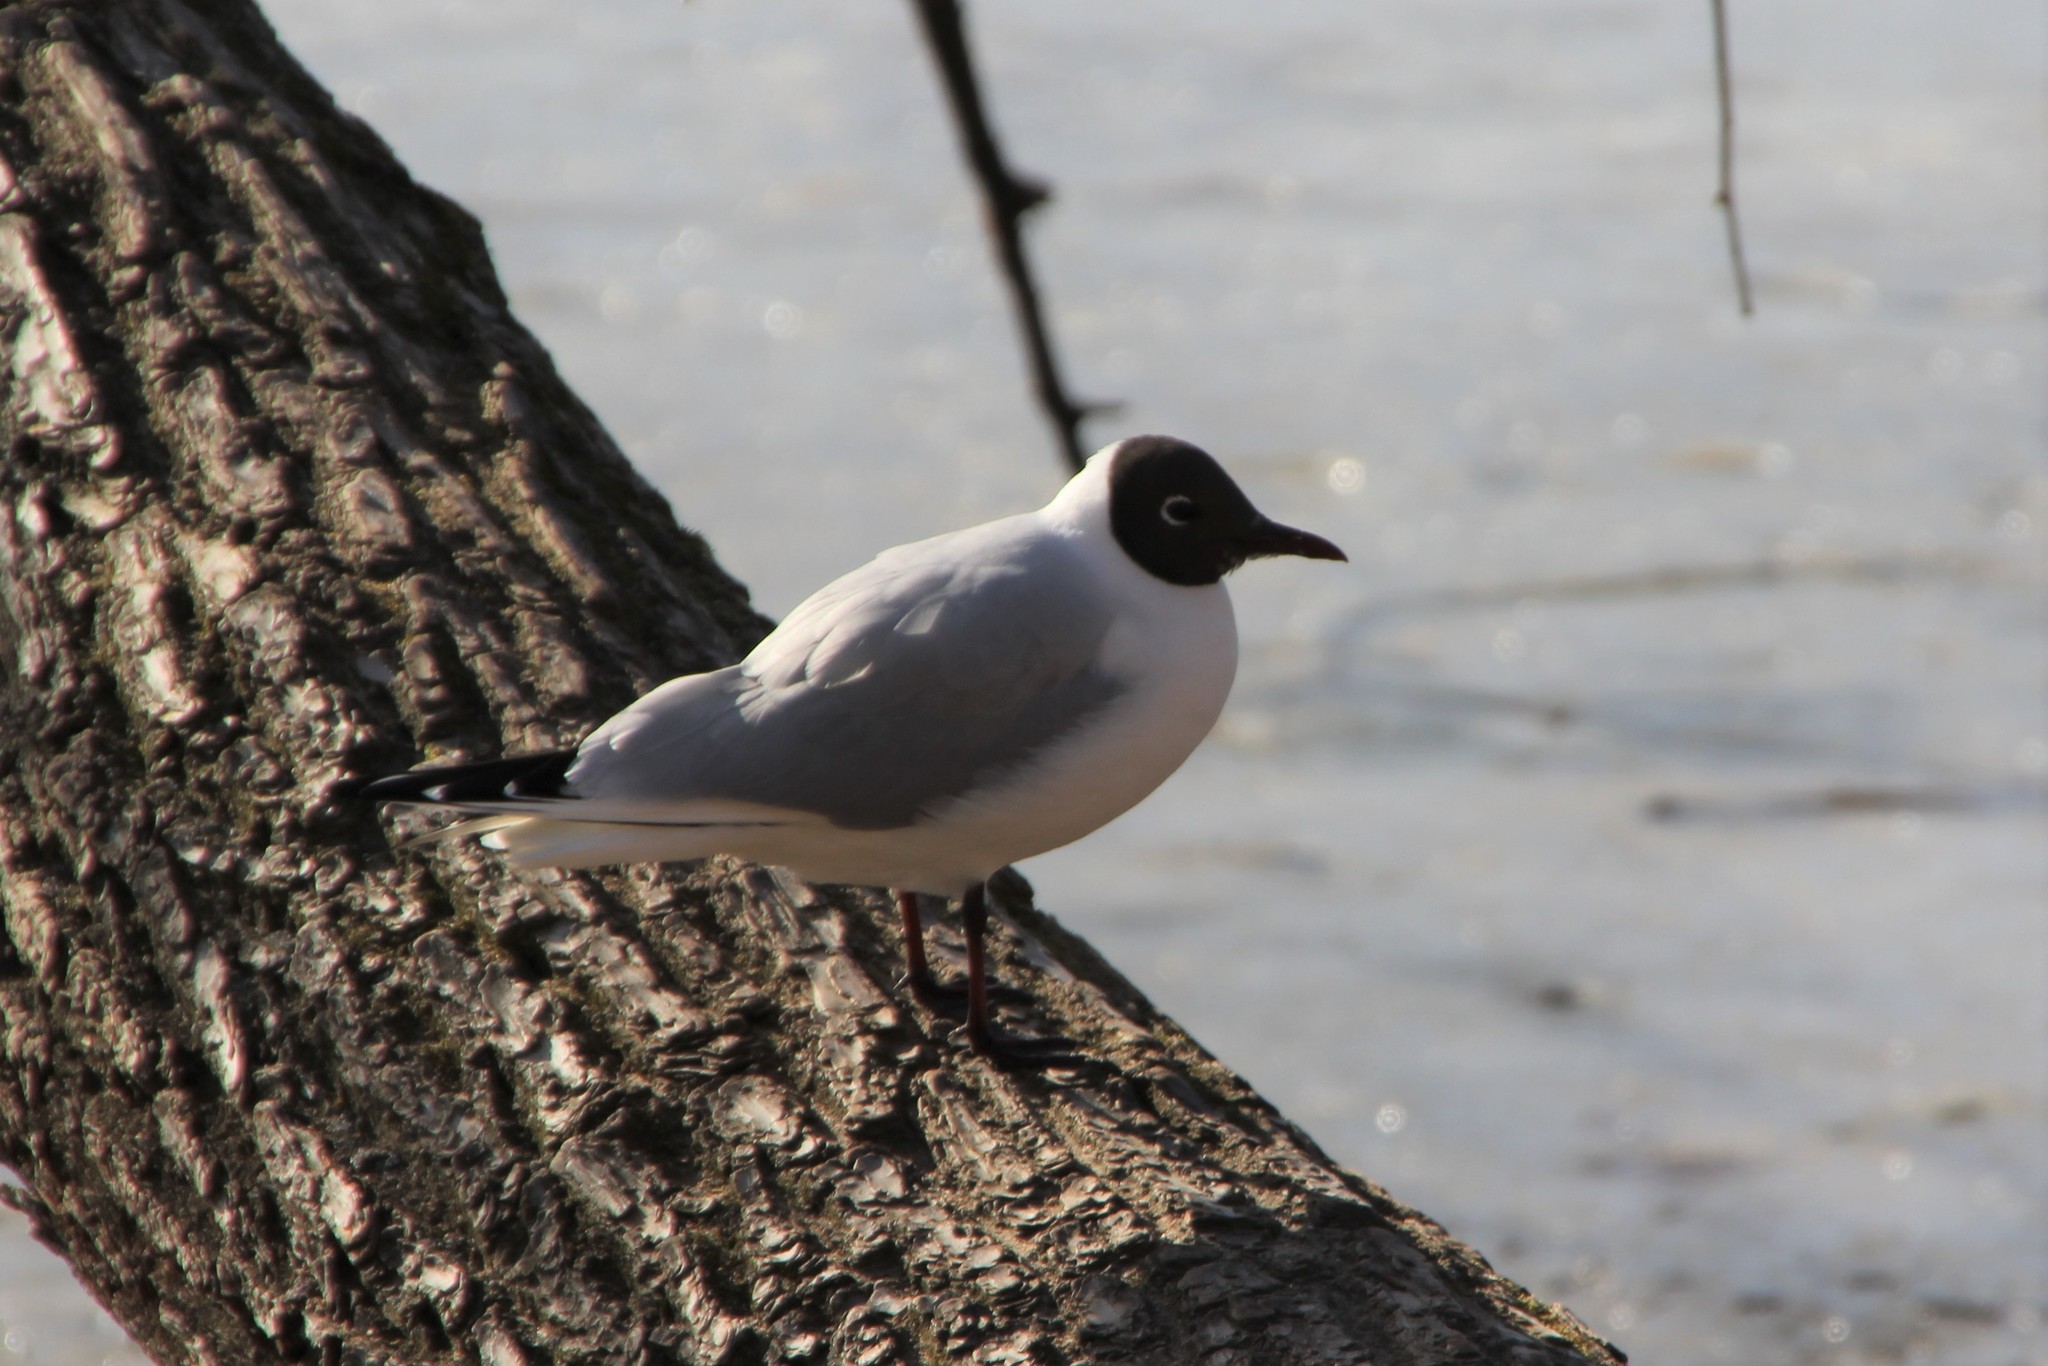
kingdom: Animalia
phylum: Chordata
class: Aves
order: Charadriiformes
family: Laridae
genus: Chroicocephalus
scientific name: Chroicocephalus ridibundus
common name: Black-headed gull
